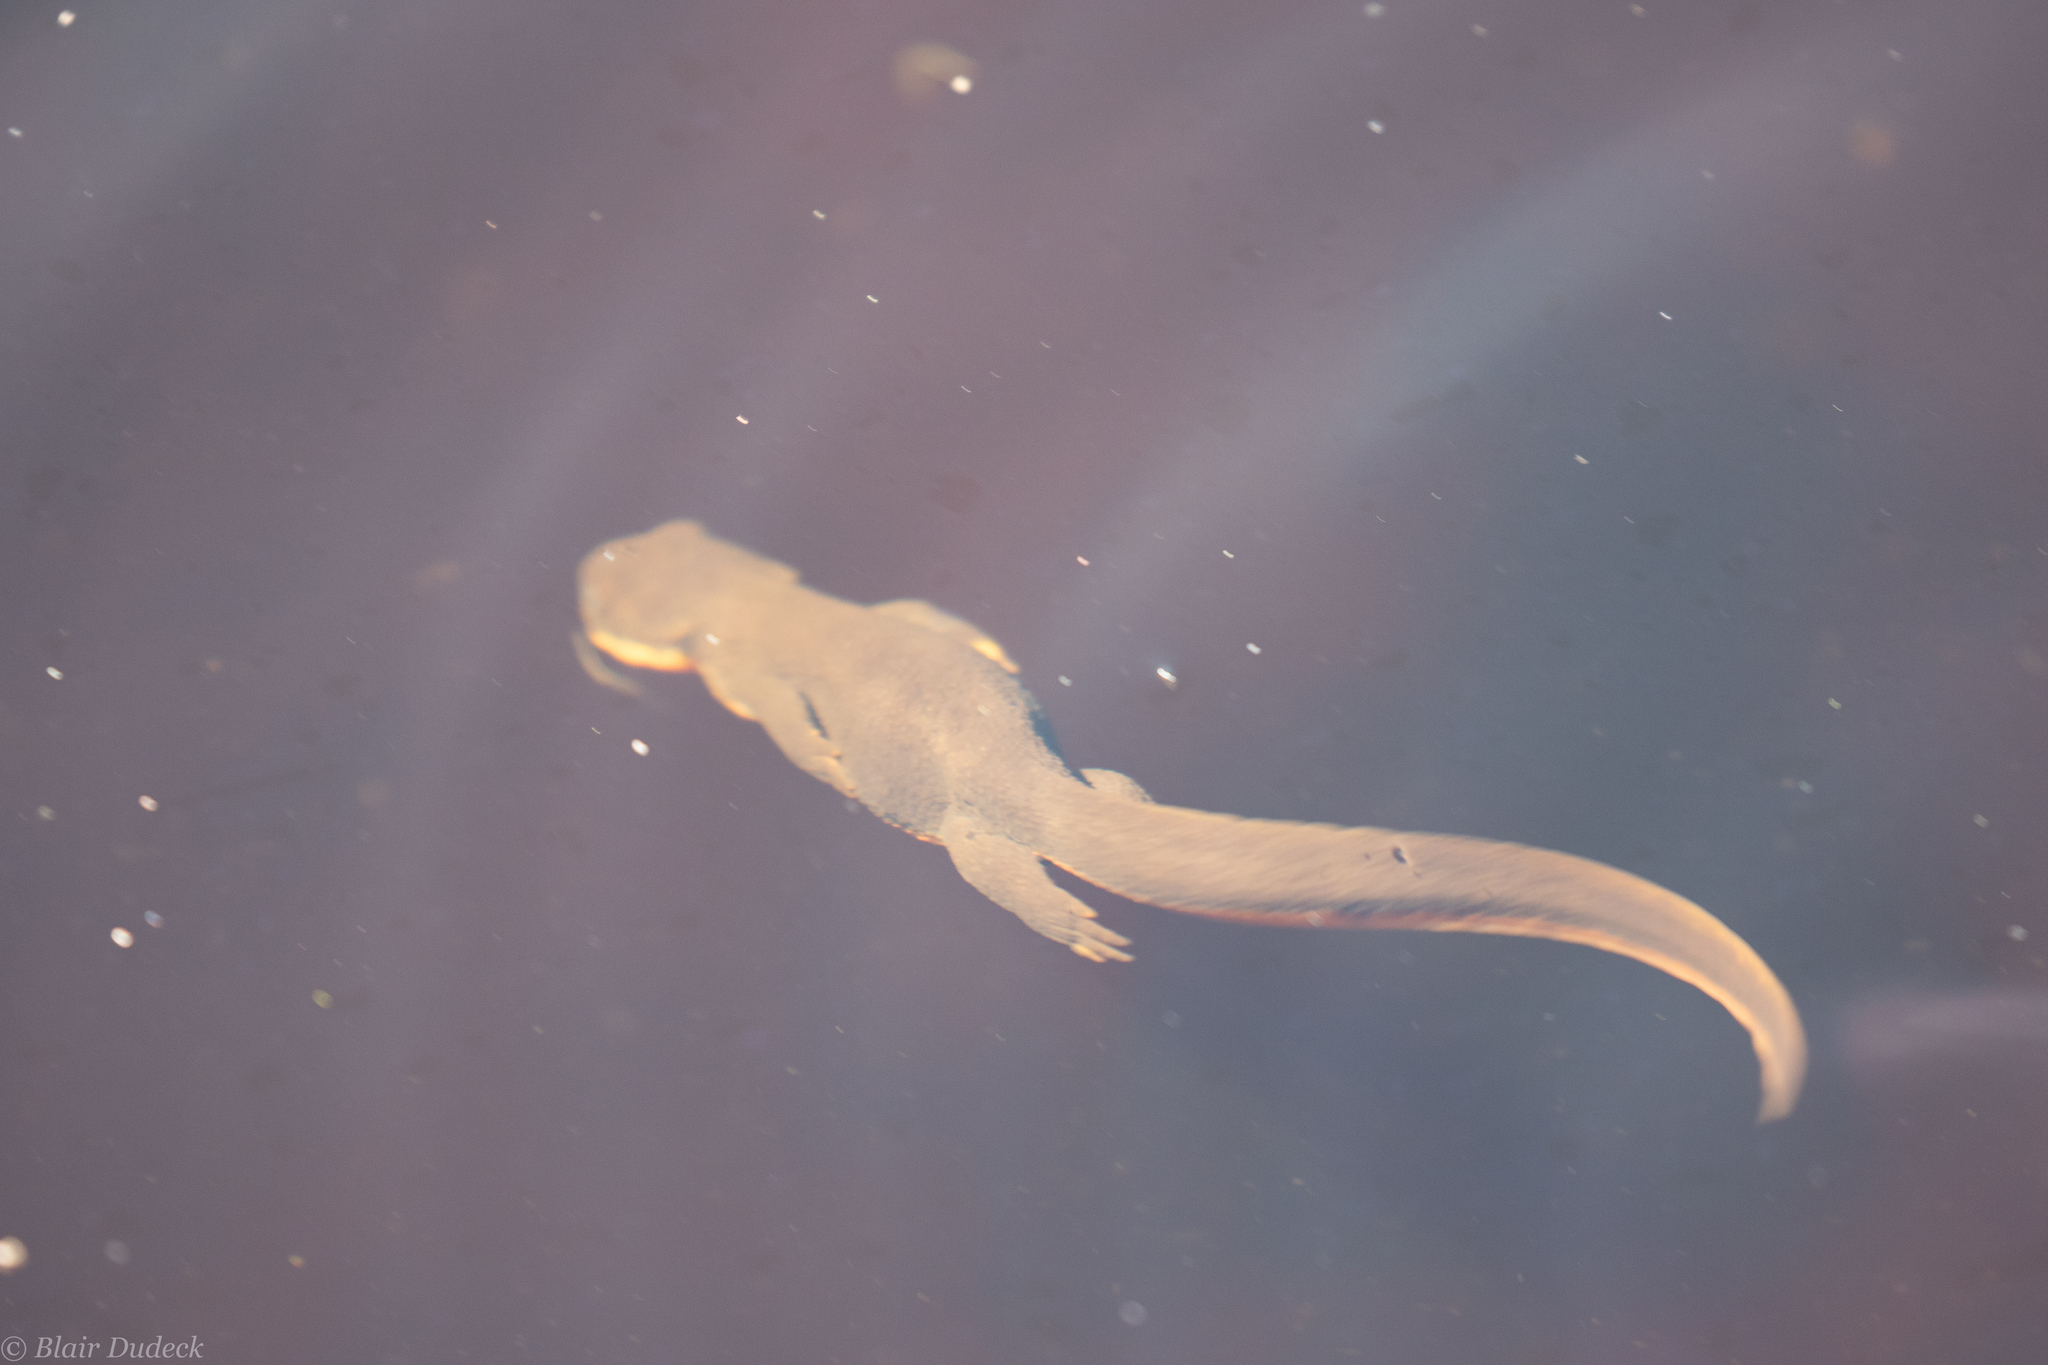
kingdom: Animalia
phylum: Chordata
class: Amphibia
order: Caudata
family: Salamandridae
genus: Taricha
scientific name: Taricha granulosa
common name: Roughskin newt
